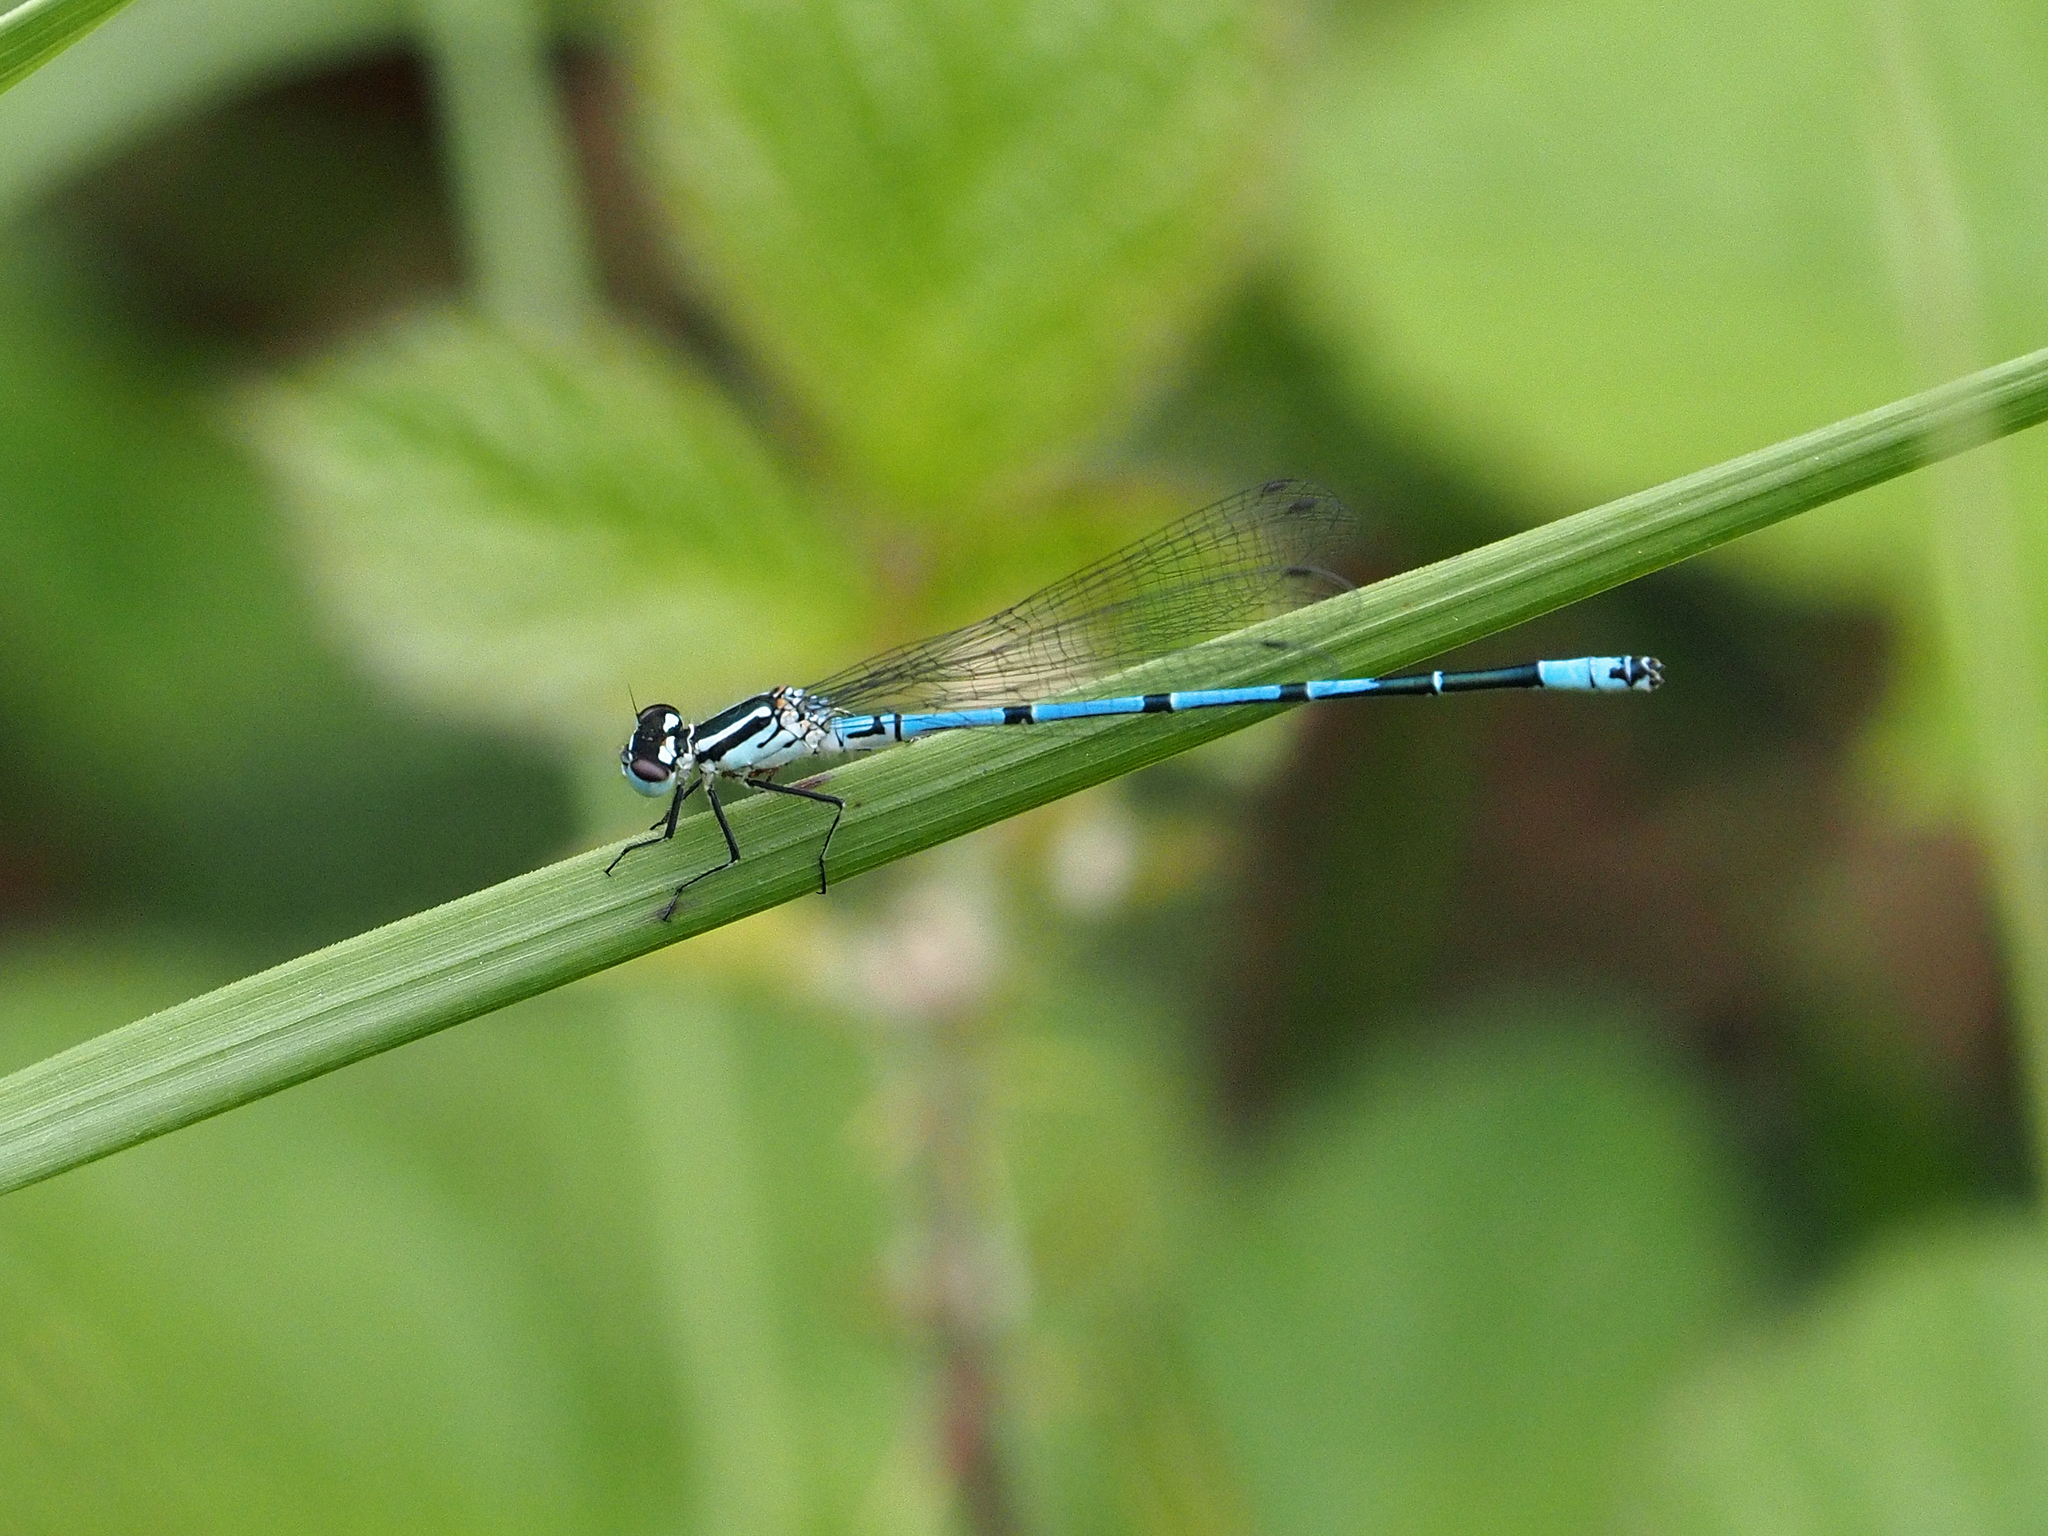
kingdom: Animalia
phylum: Arthropoda
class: Insecta
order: Odonata
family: Coenagrionidae
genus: Coenagrion
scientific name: Coenagrion puella
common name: Azure damselfly
